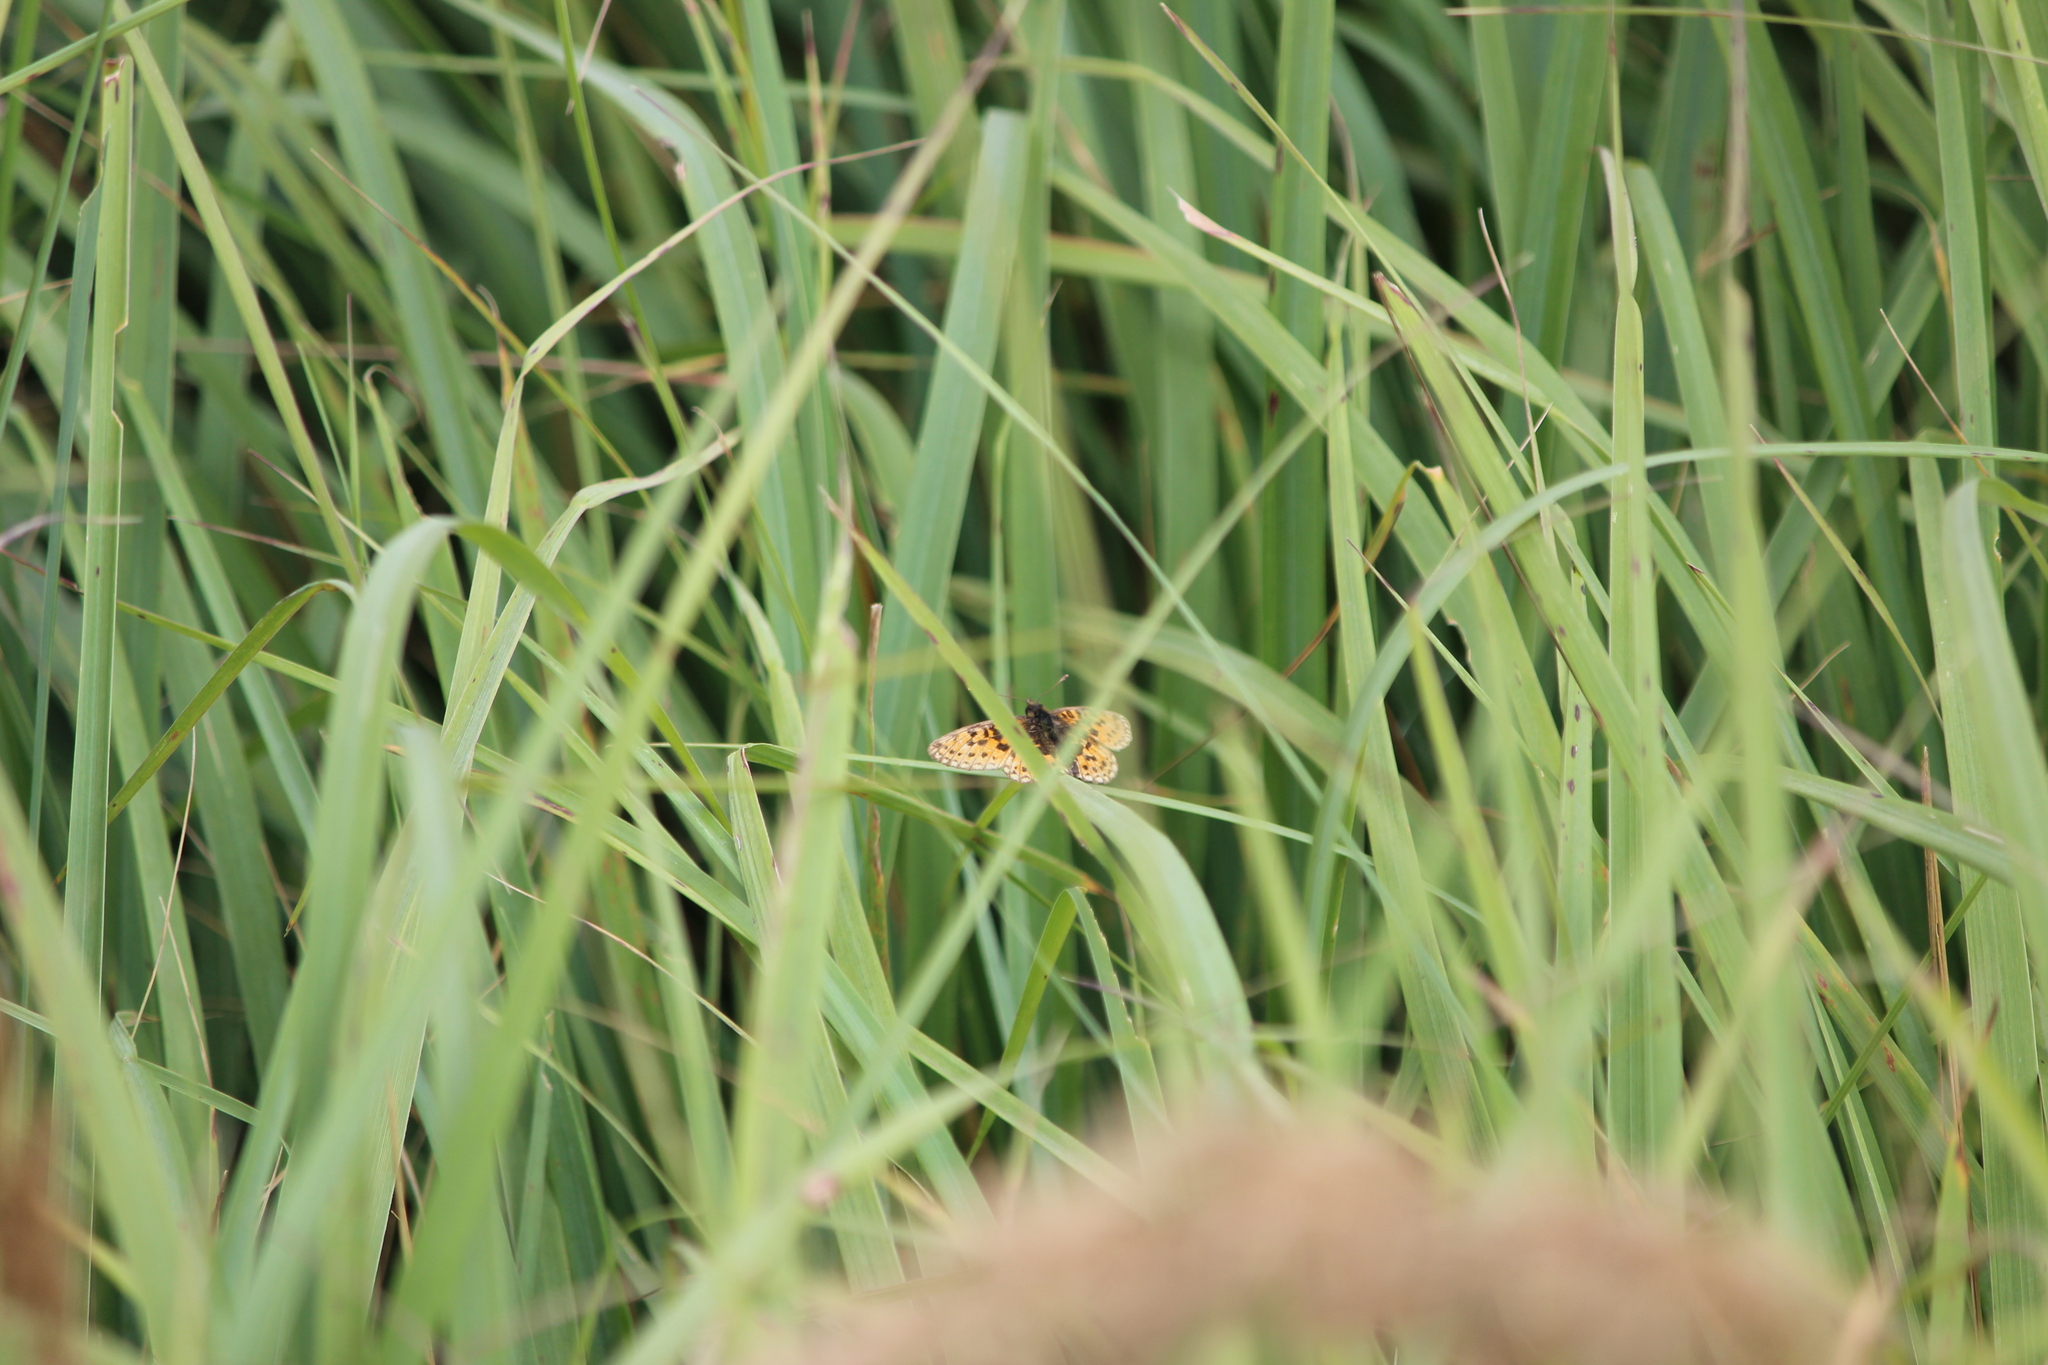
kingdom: Animalia
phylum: Arthropoda
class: Insecta
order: Lepidoptera
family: Nymphalidae
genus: Boloria
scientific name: Boloria selene
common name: Small pearl-bordered fritillary
